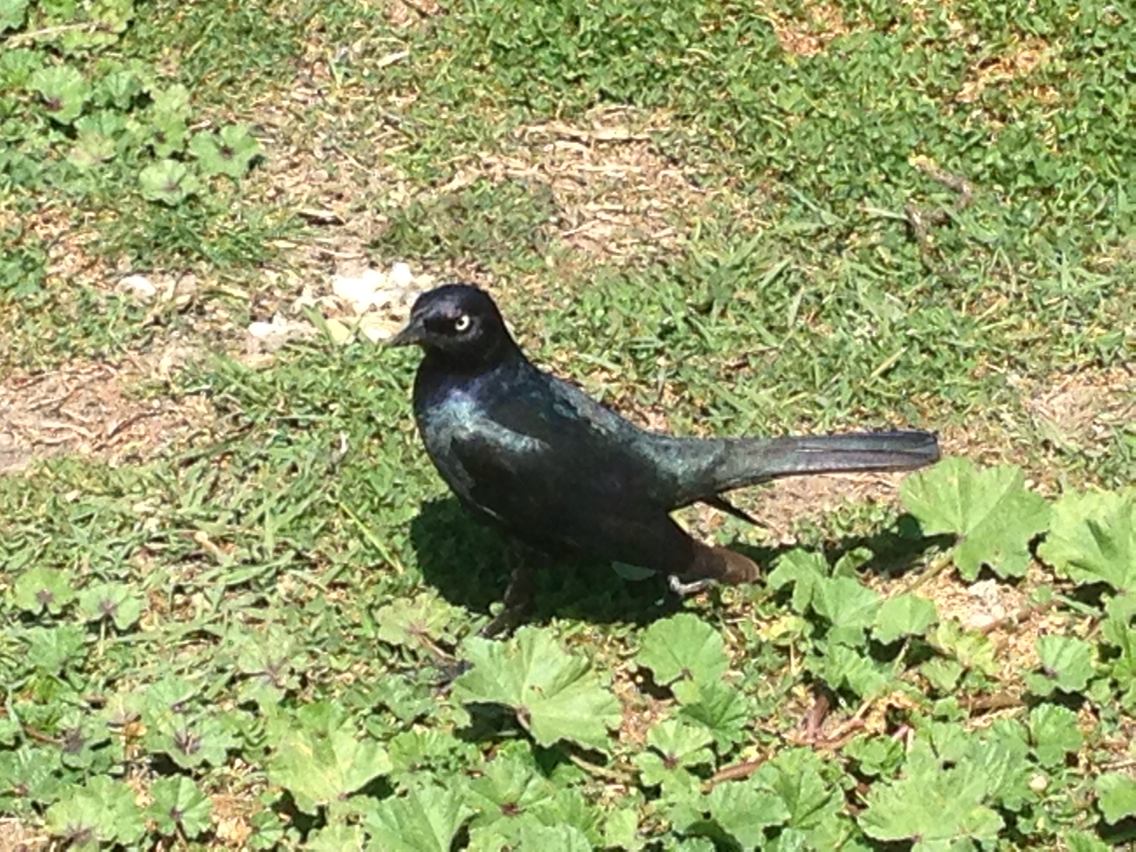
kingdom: Animalia
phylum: Chordata
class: Aves
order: Passeriformes
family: Icteridae
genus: Euphagus
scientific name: Euphagus cyanocephalus
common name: Brewer's blackbird
